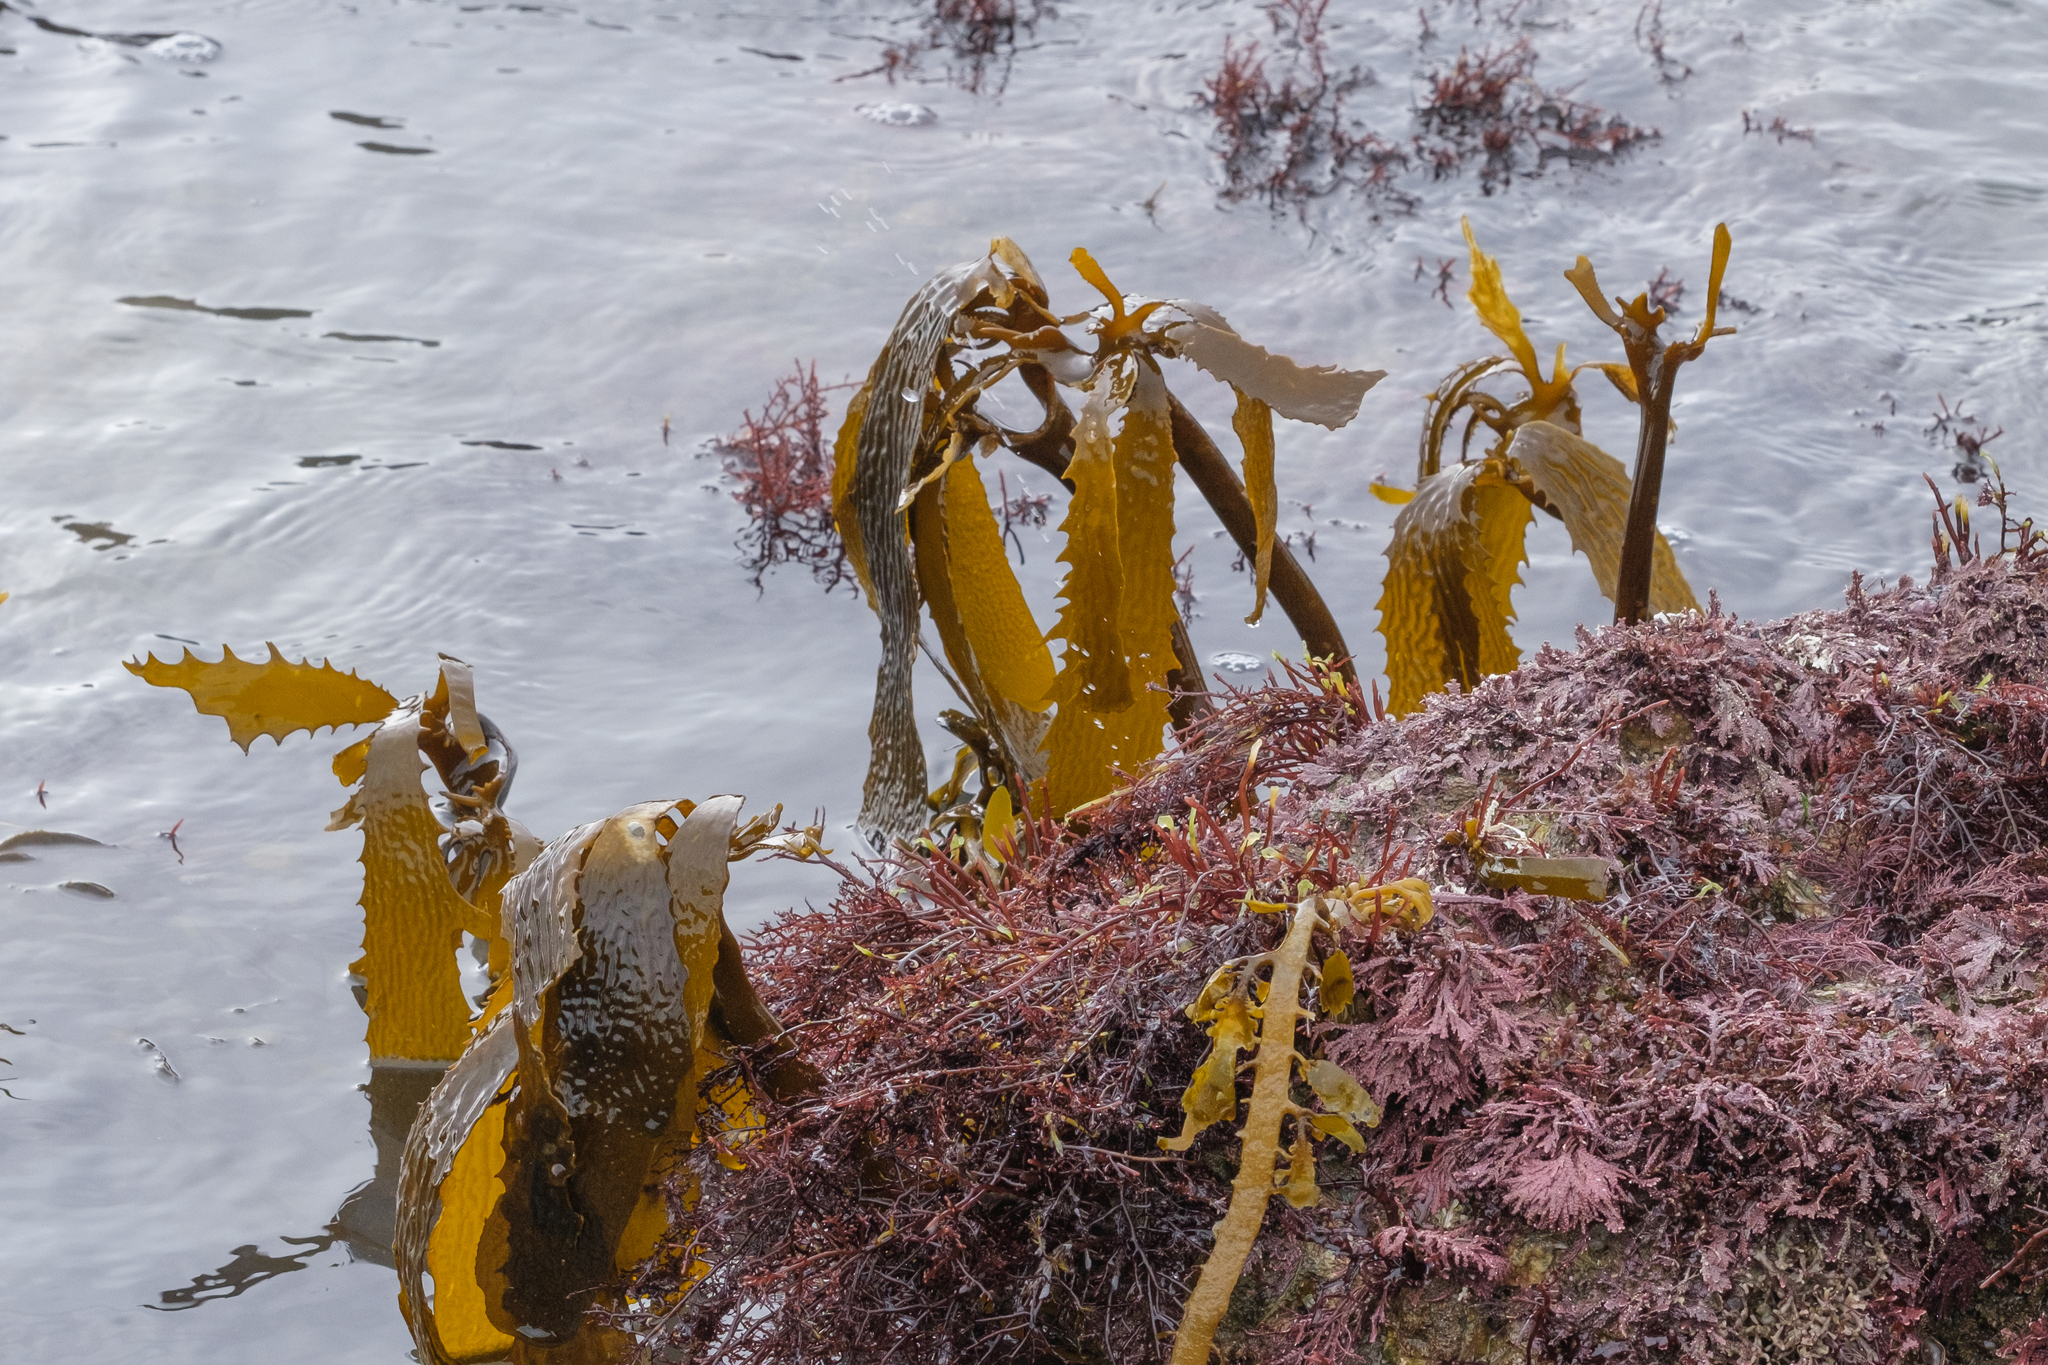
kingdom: Chromista
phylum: Ochrophyta
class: Phaeophyceae
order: Laminariales
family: Lessoniaceae
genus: Eisenia
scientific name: Eisenia arborea
